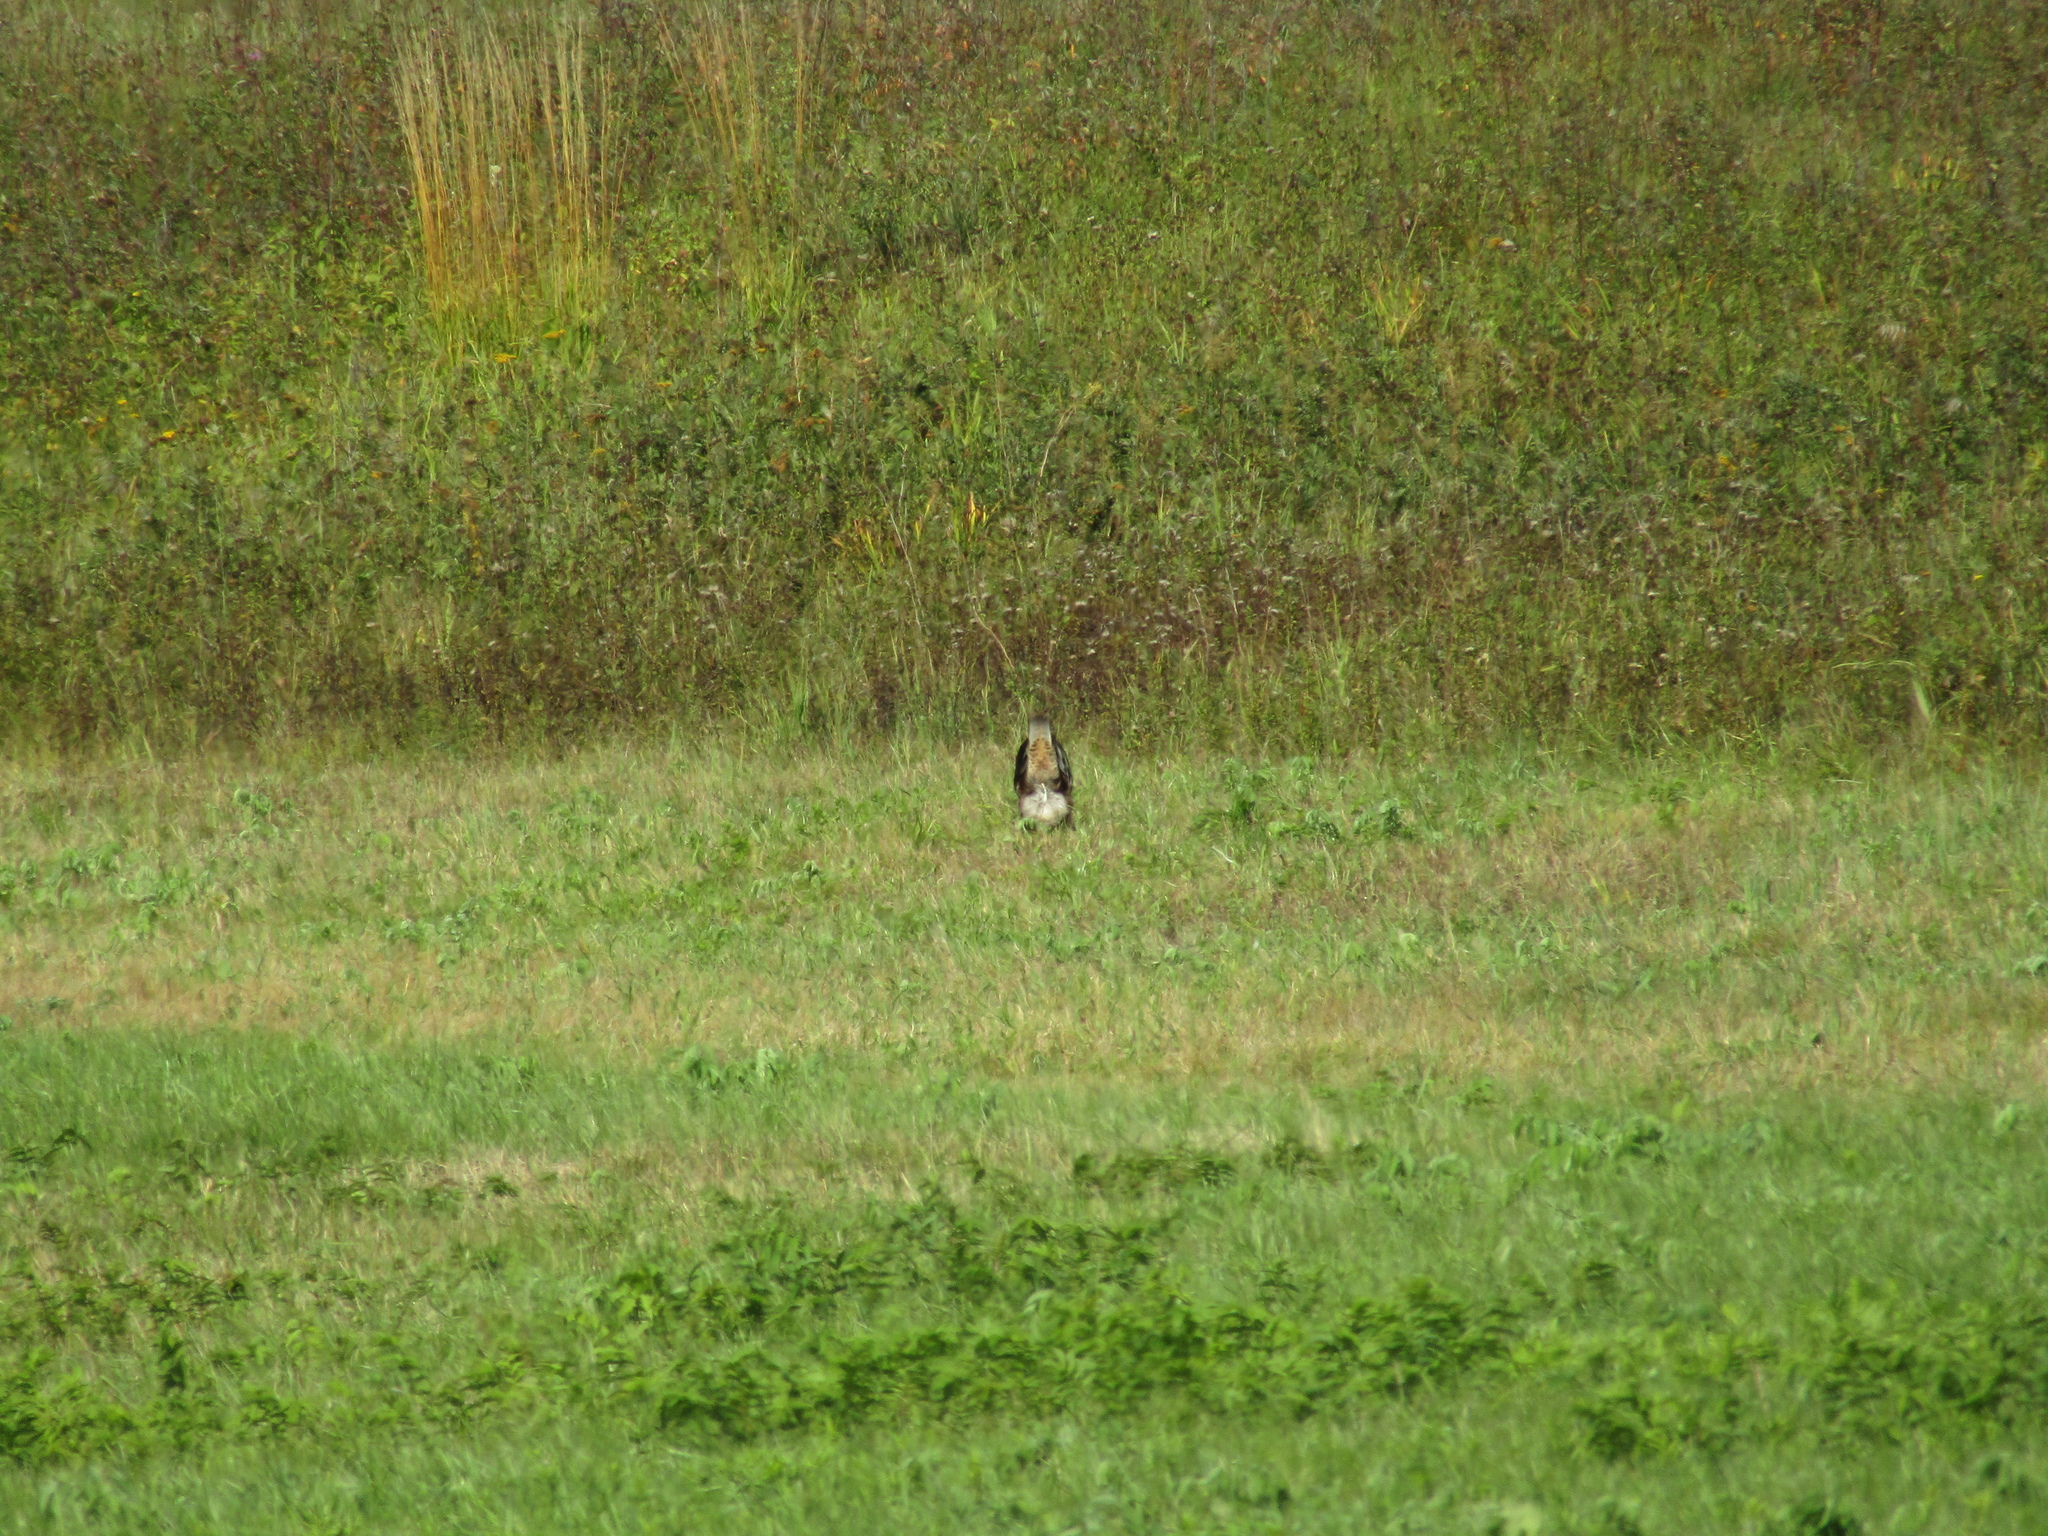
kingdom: Animalia
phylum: Chordata
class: Aves
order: Accipitriformes
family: Accipitridae
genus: Buteo
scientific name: Buteo buteo
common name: Common buzzard
